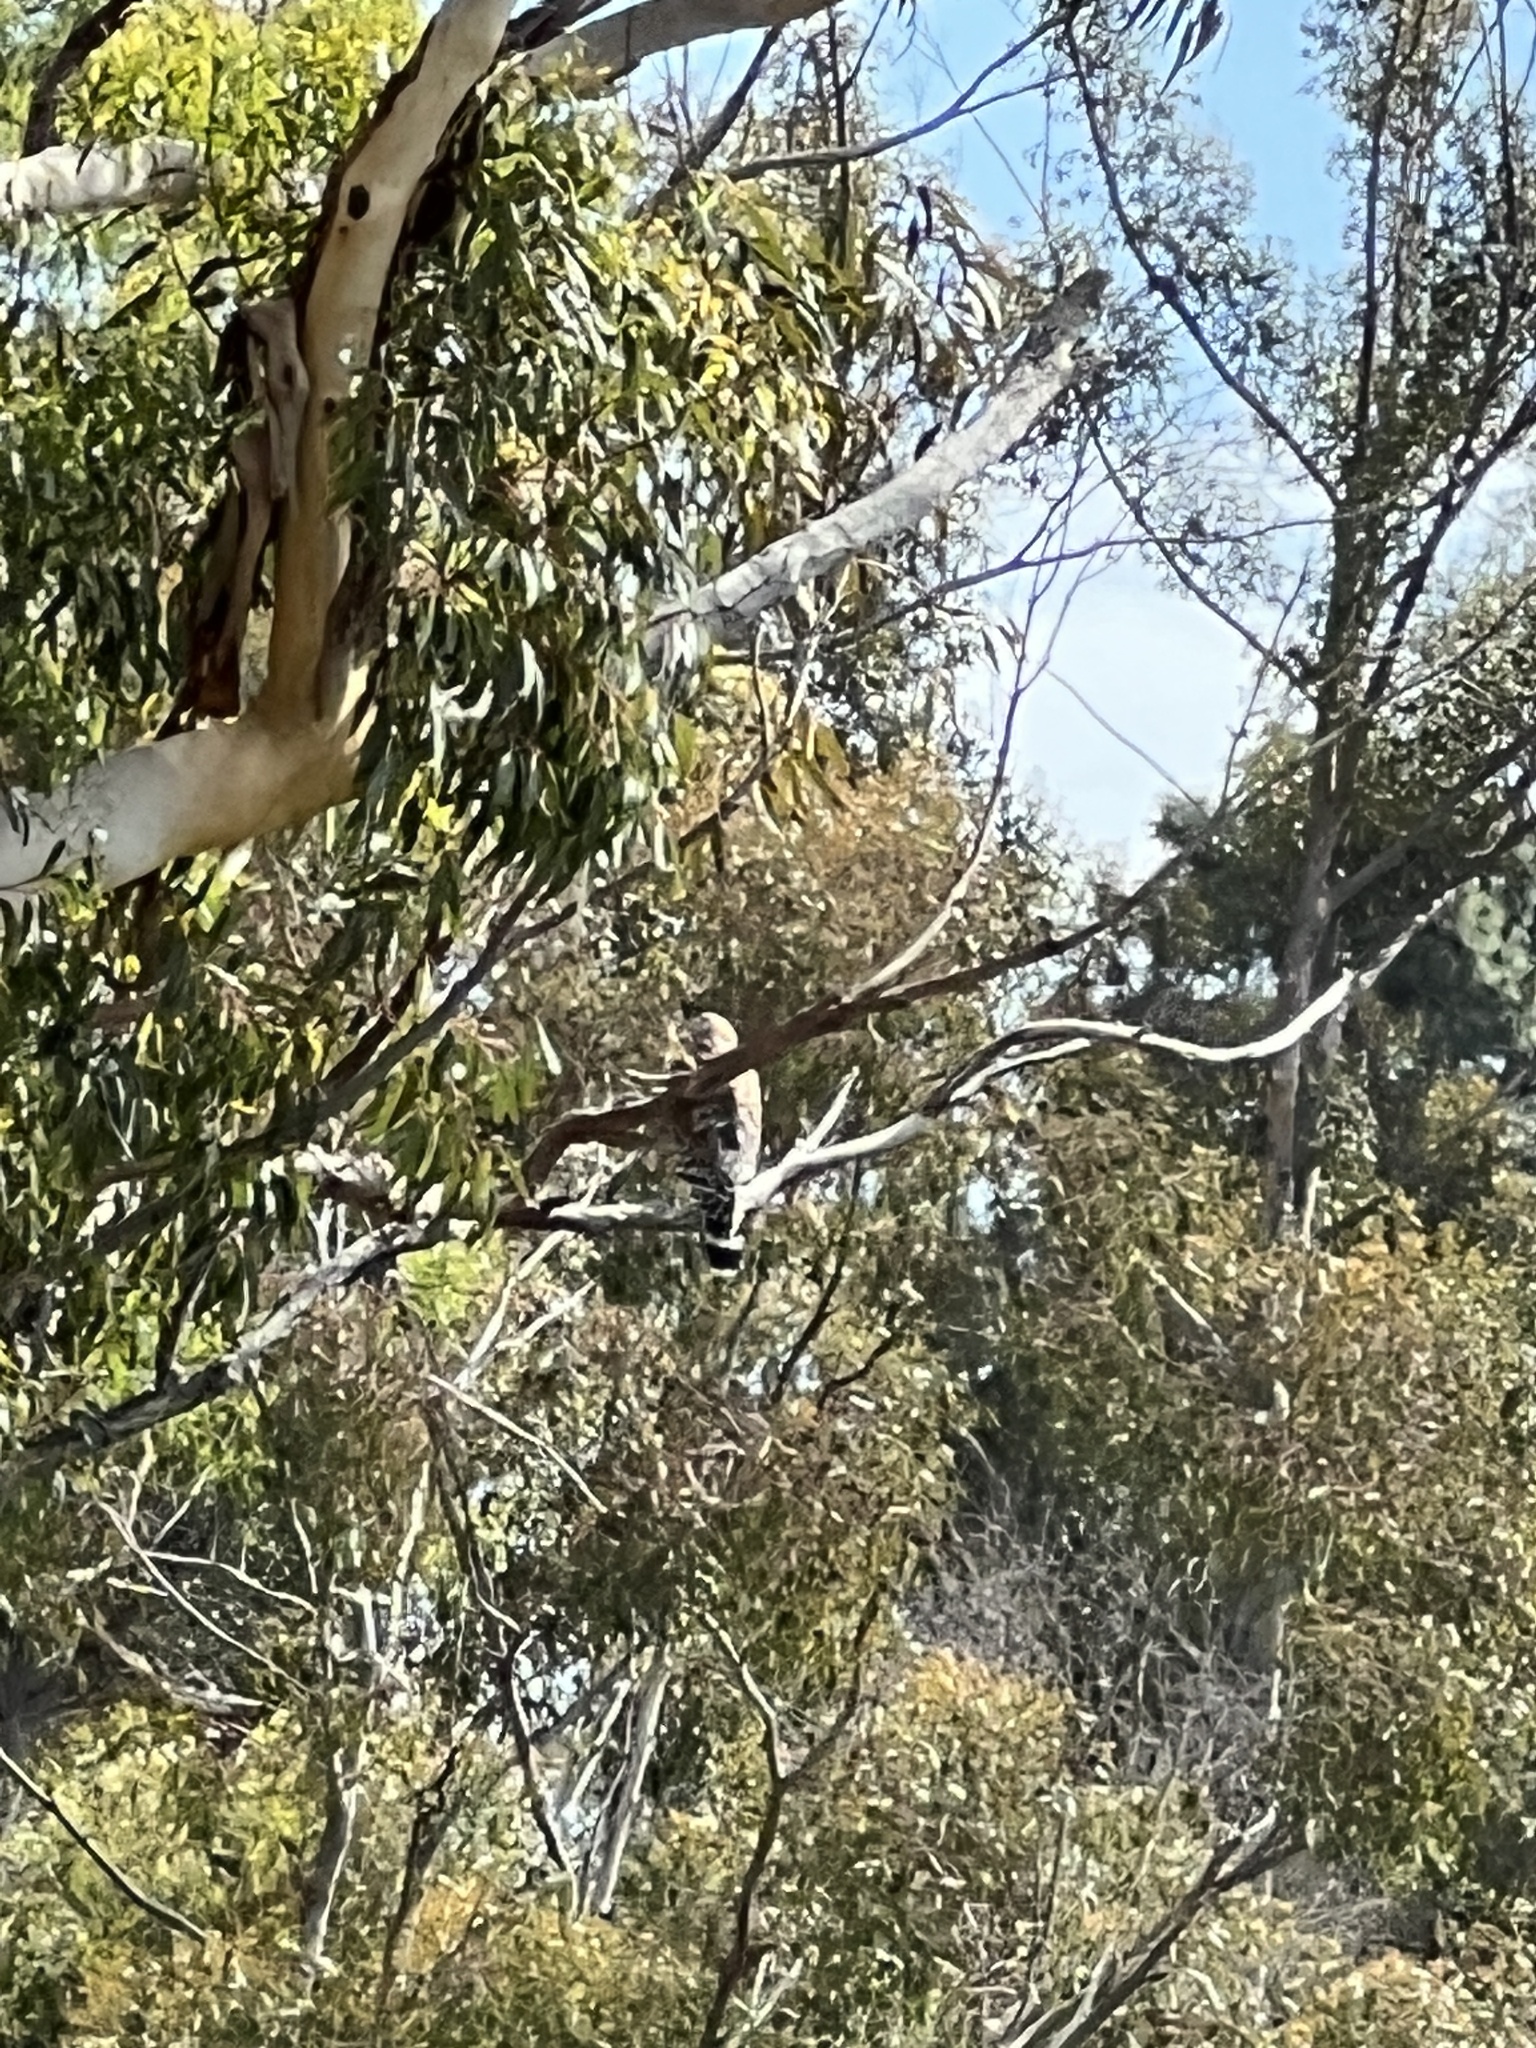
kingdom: Animalia
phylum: Chordata
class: Aves
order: Accipitriformes
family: Accipitridae
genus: Buteo
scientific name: Buteo lineatus
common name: Red-shouldered hawk
